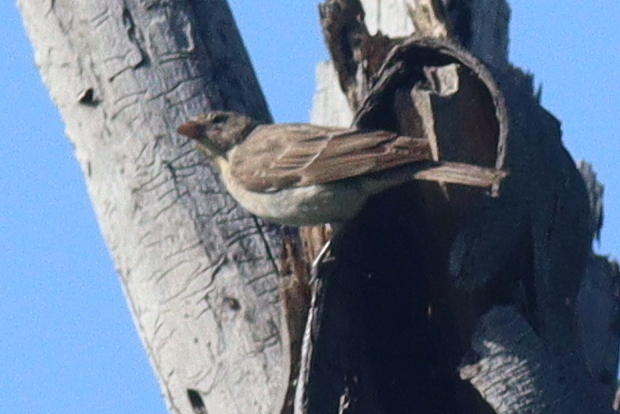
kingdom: Animalia
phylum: Chordata
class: Aves
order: Passeriformes
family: Passeridae
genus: Gymnoris
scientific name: Gymnoris pyrgita
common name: Yellow-spotted petronia
